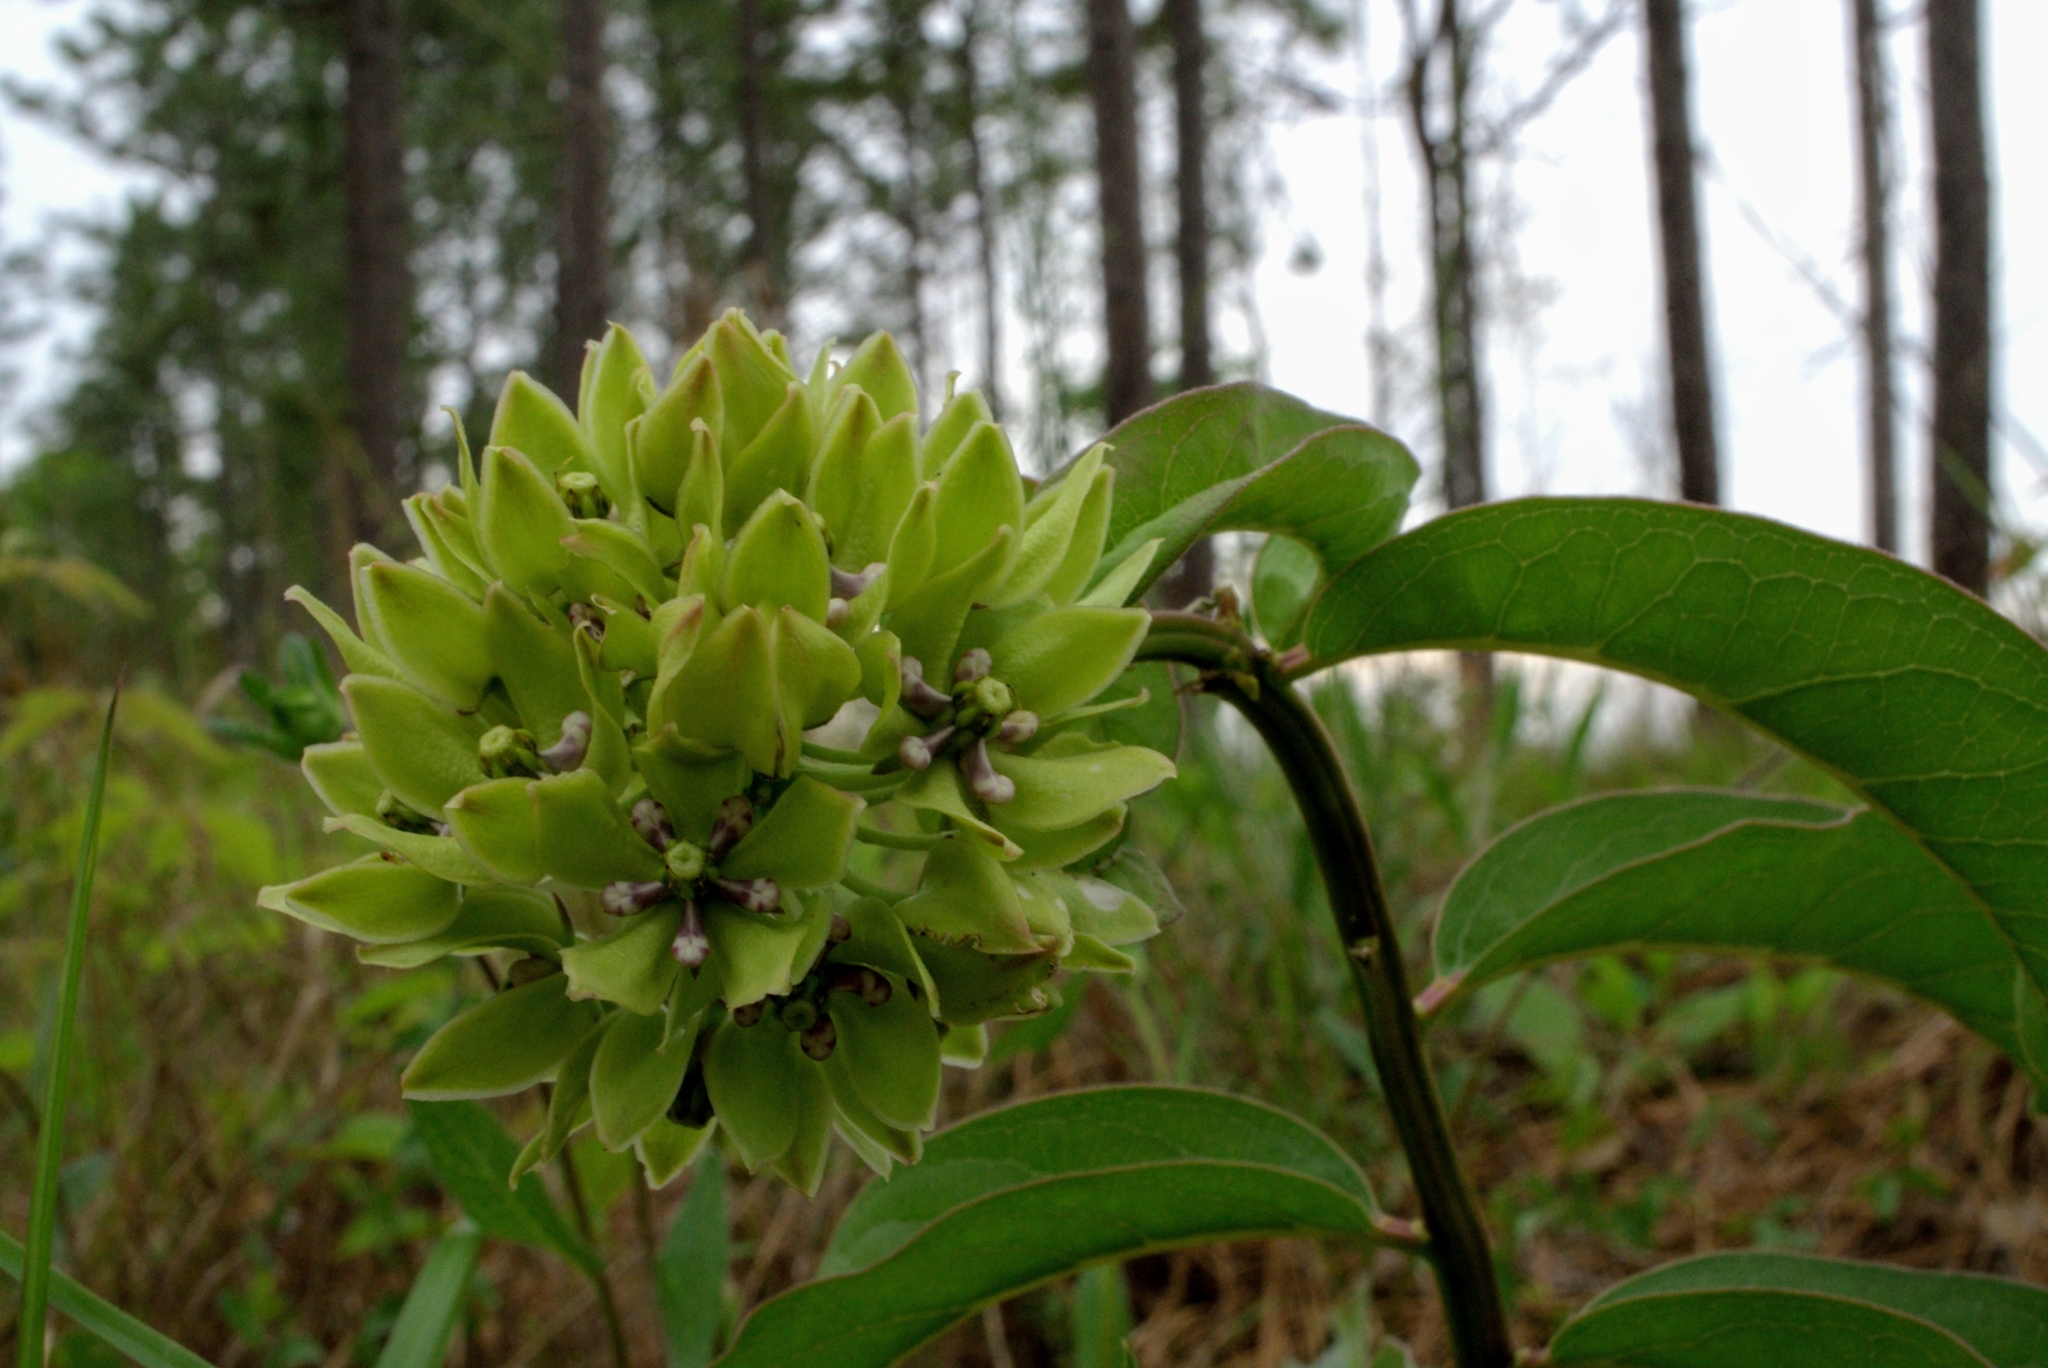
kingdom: Plantae
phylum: Tracheophyta
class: Magnoliopsida
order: Gentianales
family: Apocynaceae
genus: Asclepias
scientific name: Asclepias viridis
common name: Antelope-horns
